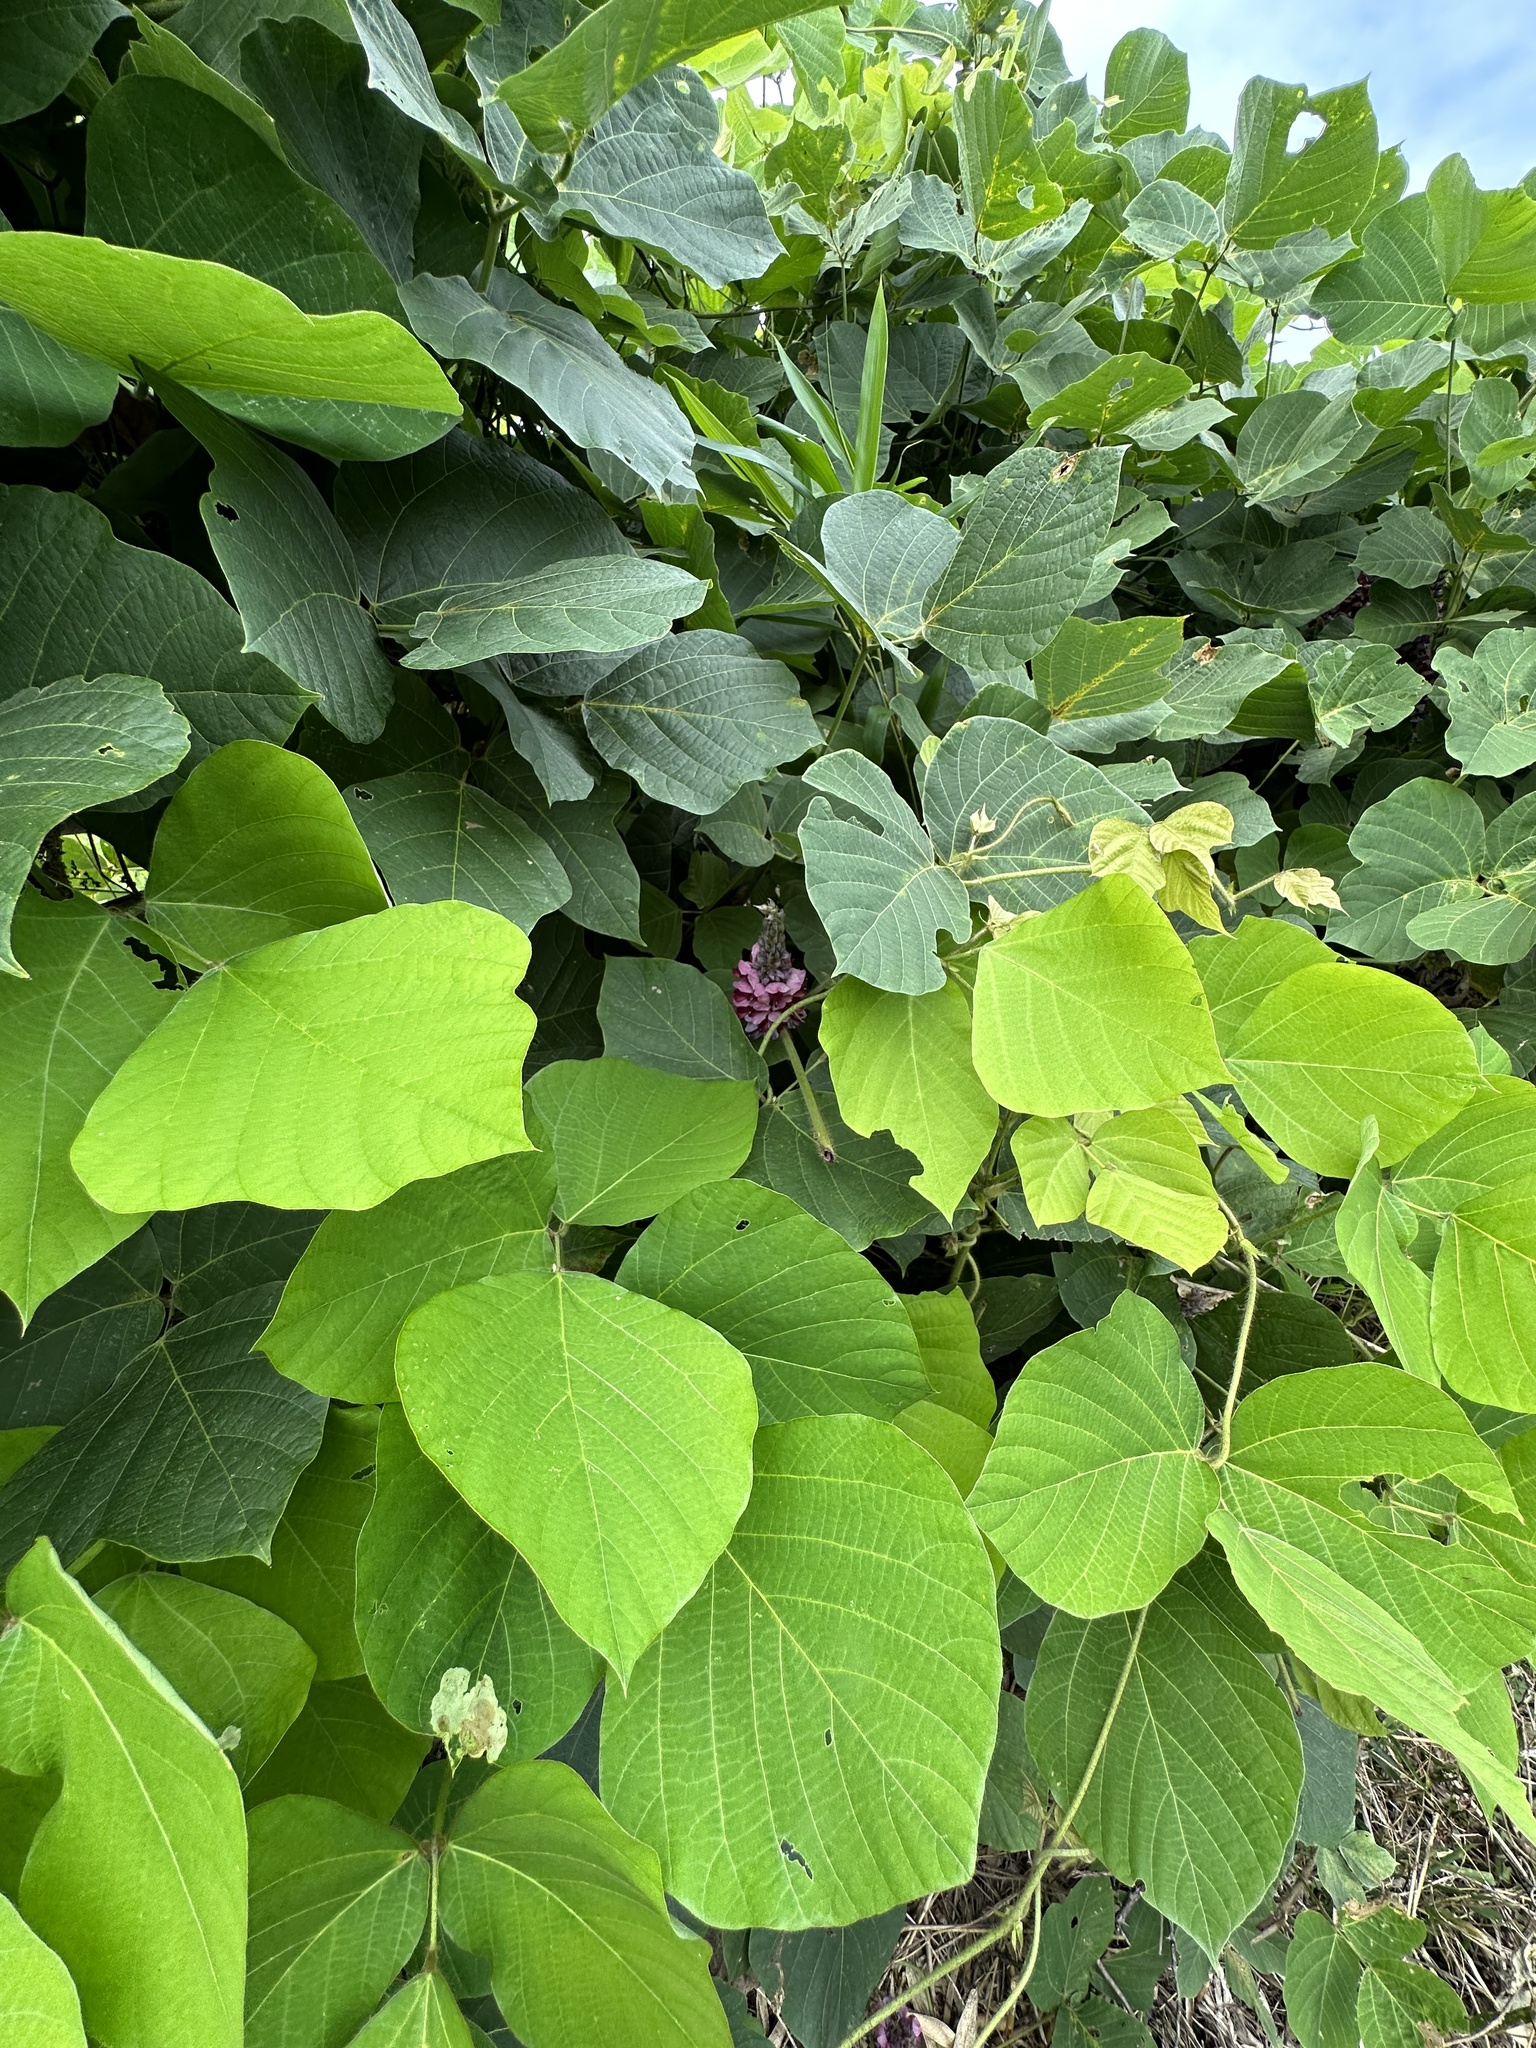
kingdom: Plantae
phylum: Tracheophyta
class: Magnoliopsida
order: Fabales
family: Fabaceae
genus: Pueraria
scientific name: Pueraria montana
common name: Kudzu
